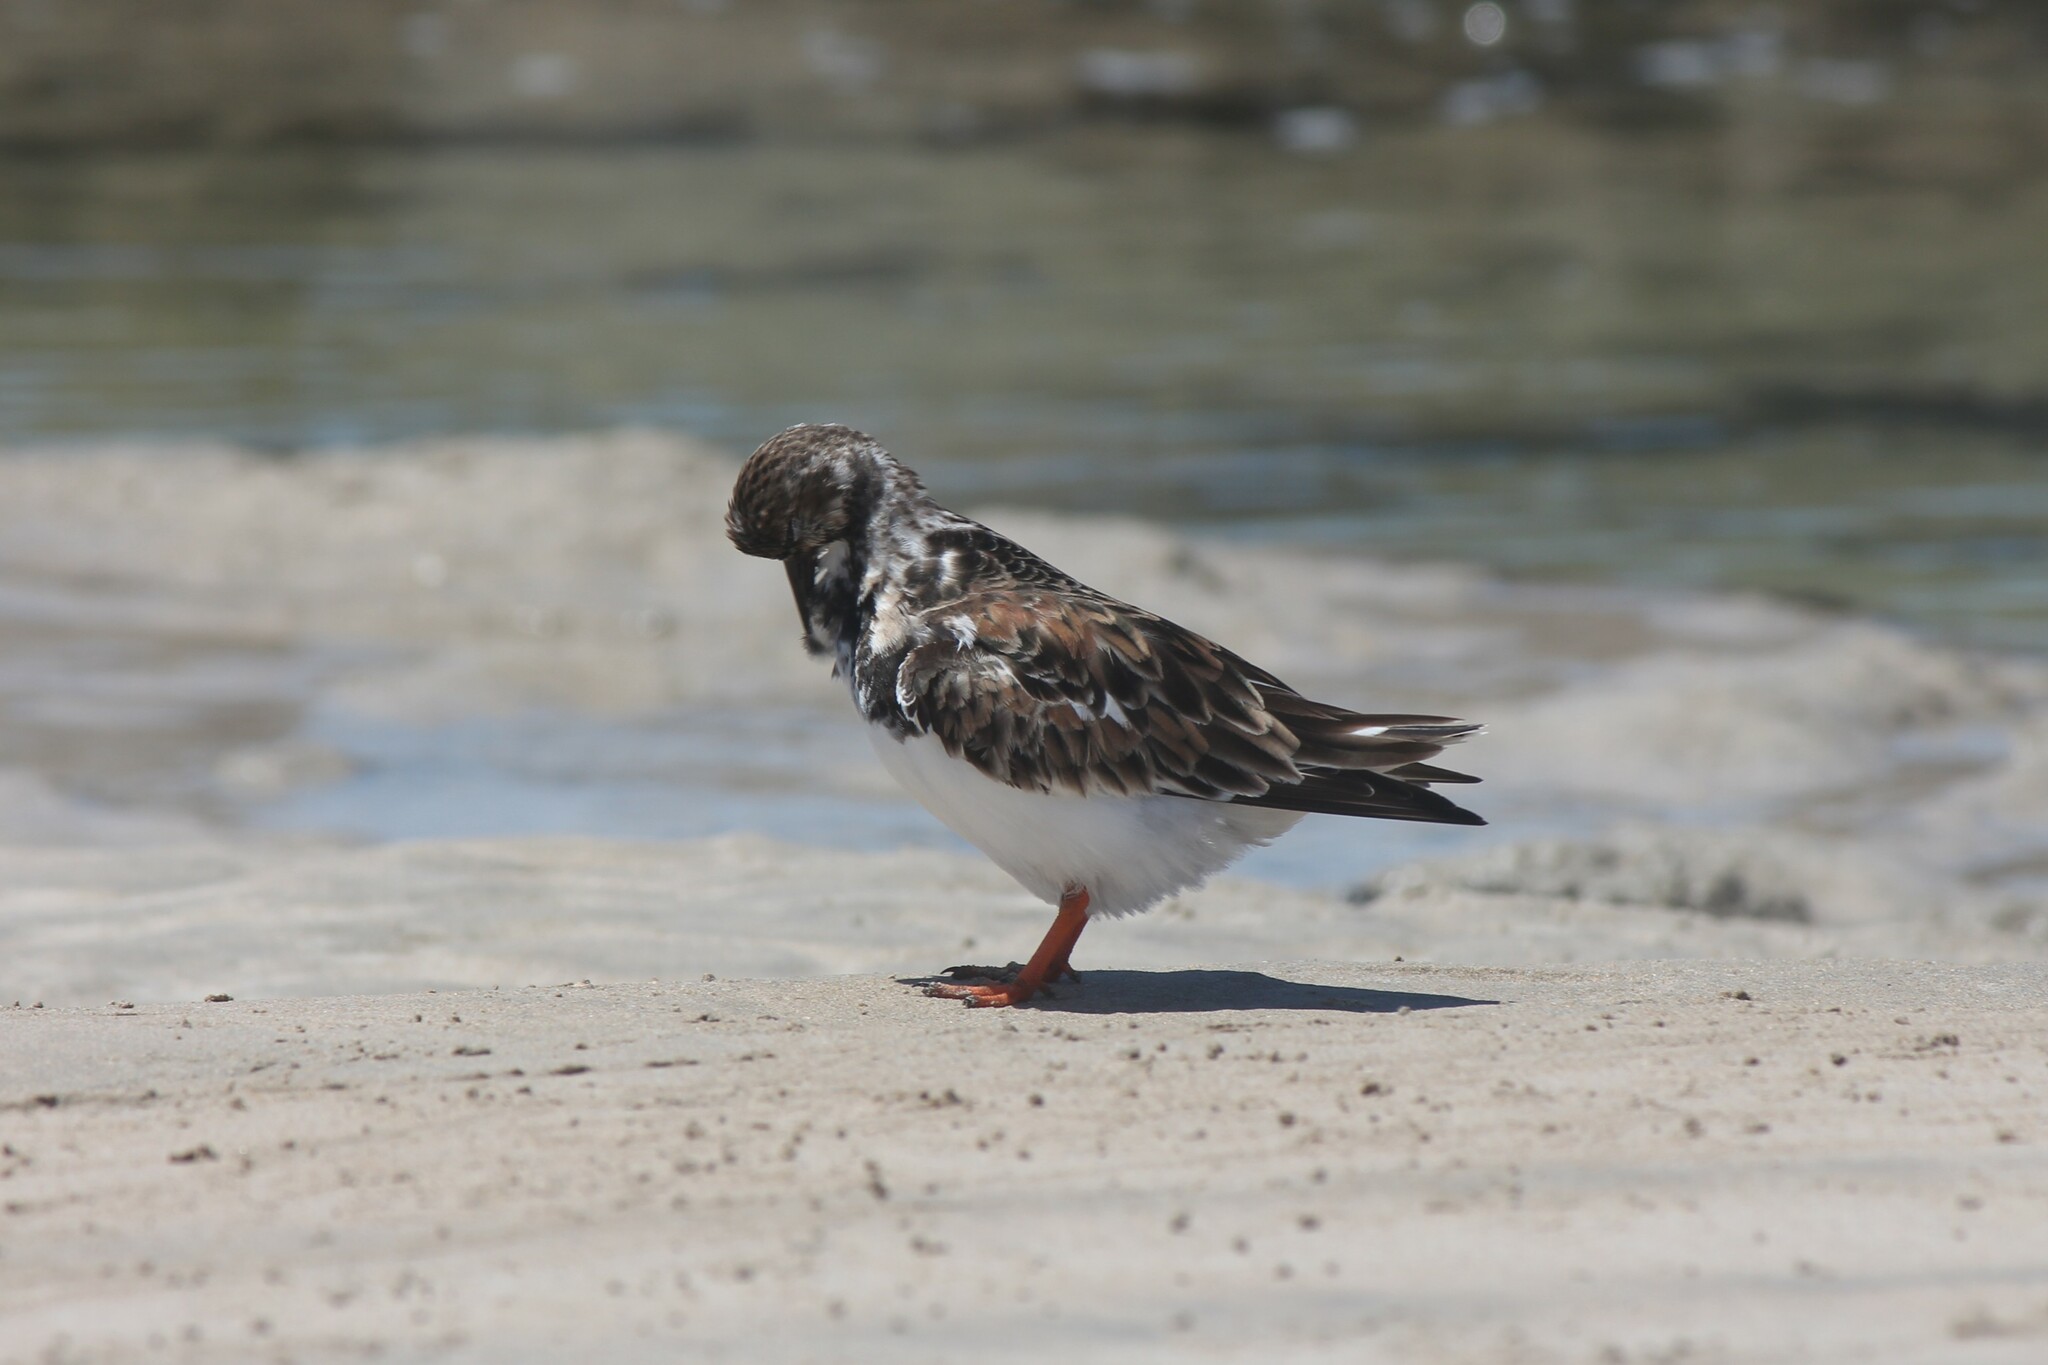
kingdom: Animalia
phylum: Chordata
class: Aves
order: Charadriiformes
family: Scolopacidae
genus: Arenaria
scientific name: Arenaria interpres
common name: Ruddy turnstone
